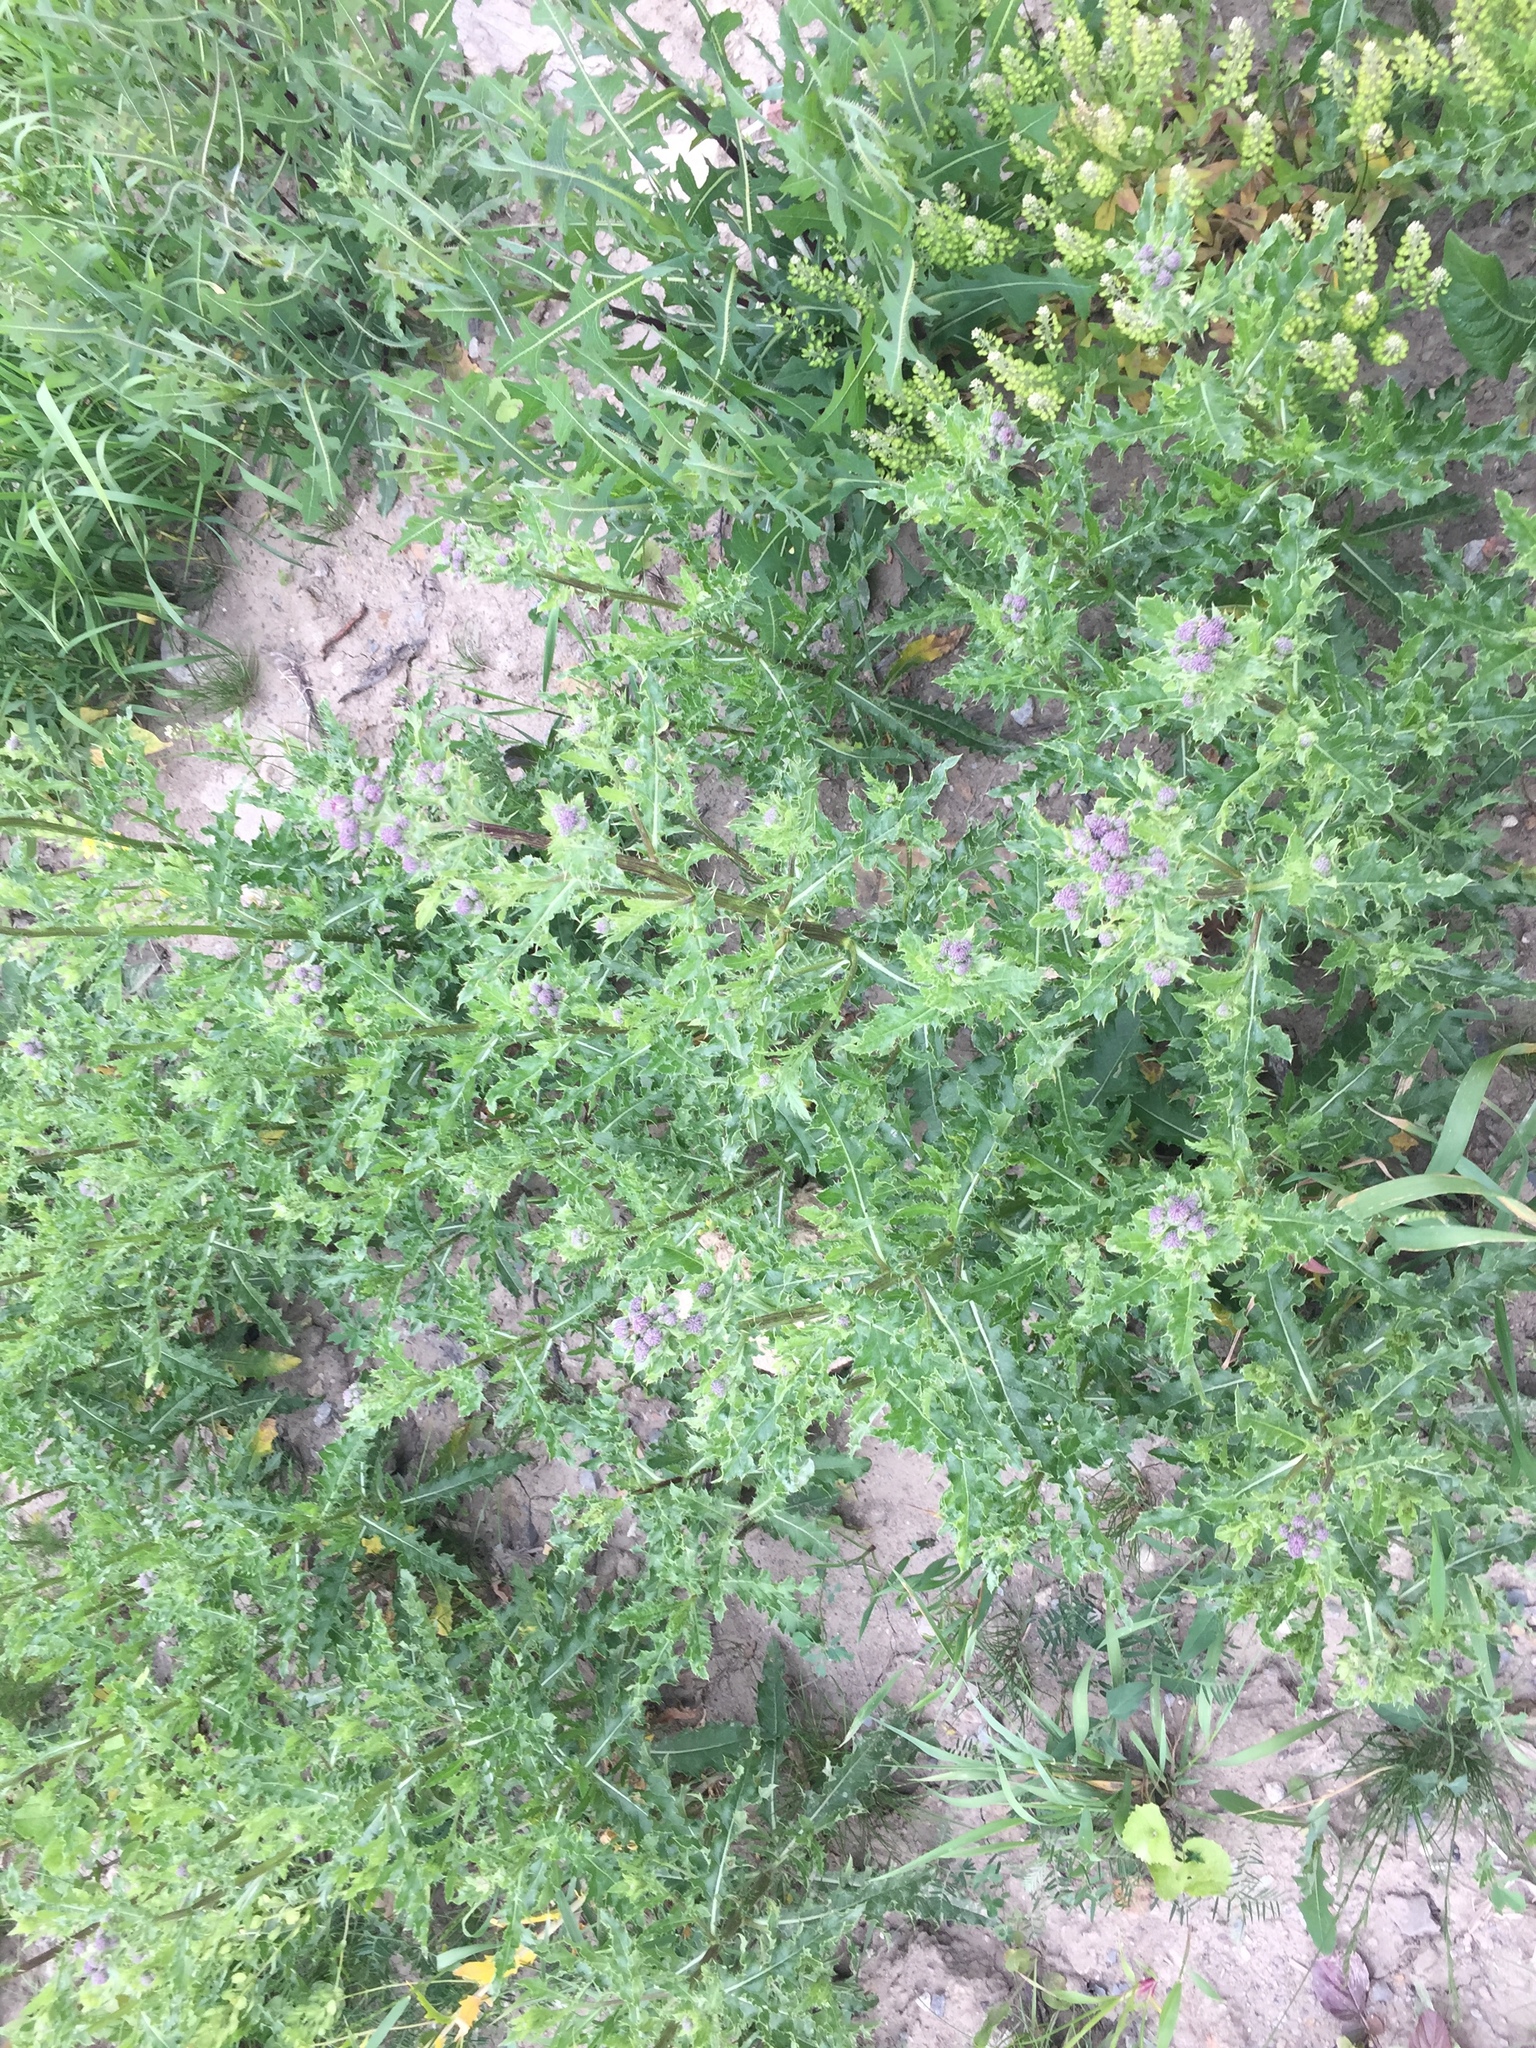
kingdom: Plantae
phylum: Tracheophyta
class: Magnoliopsida
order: Asterales
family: Asteraceae
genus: Cirsium
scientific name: Cirsium arvense
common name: Creeping thistle
